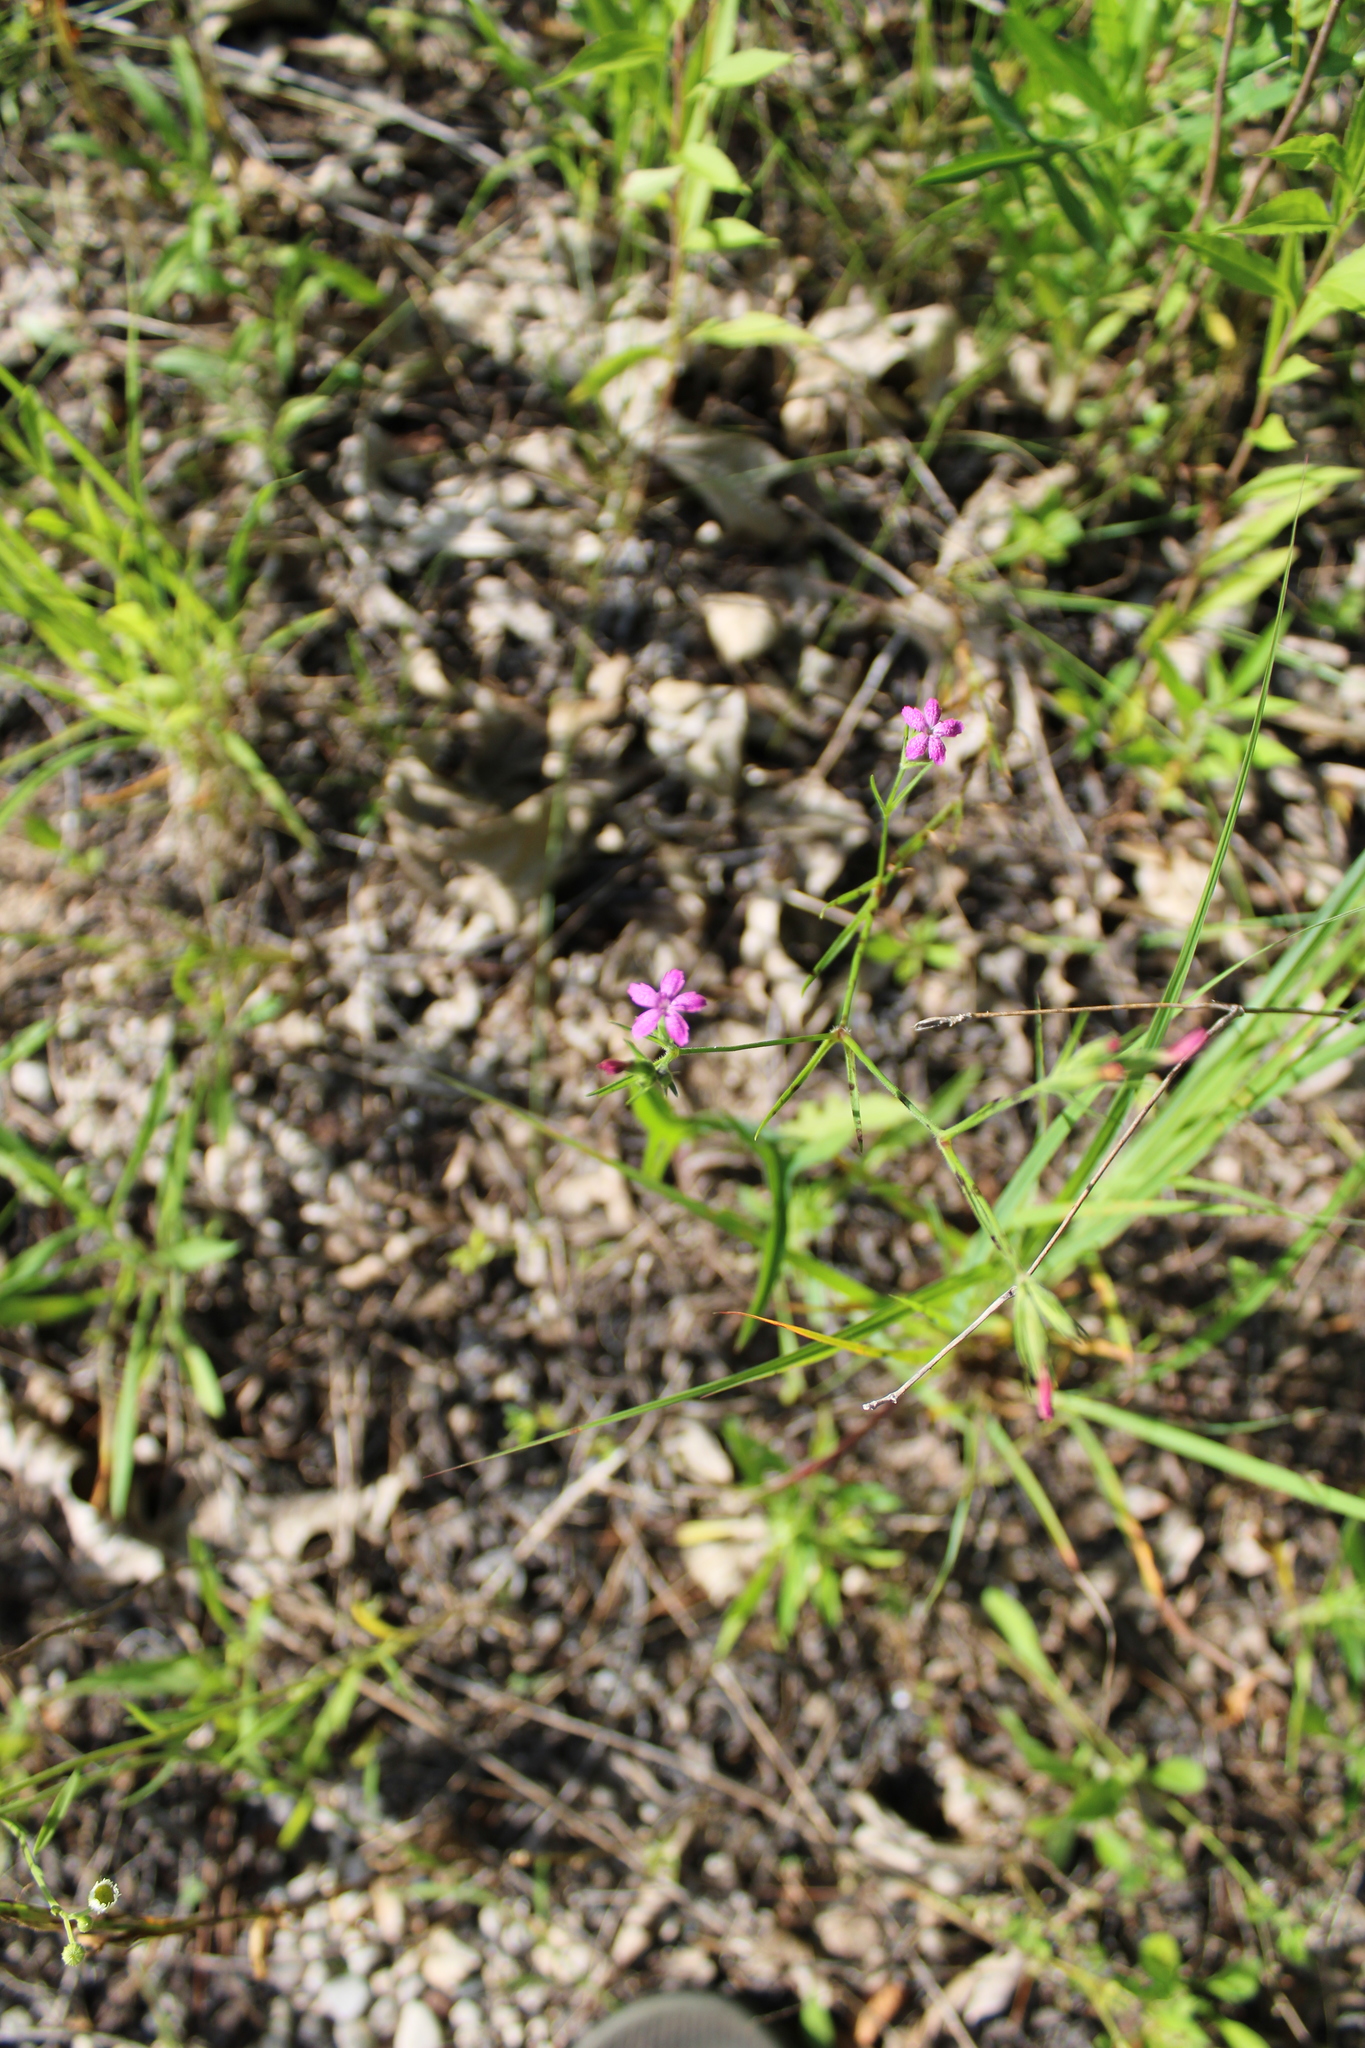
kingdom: Plantae
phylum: Tracheophyta
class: Magnoliopsida
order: Caryophyllales
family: Caryophyllaceae
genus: Dianthus
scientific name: Dianthus armeria
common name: Deptford pink
